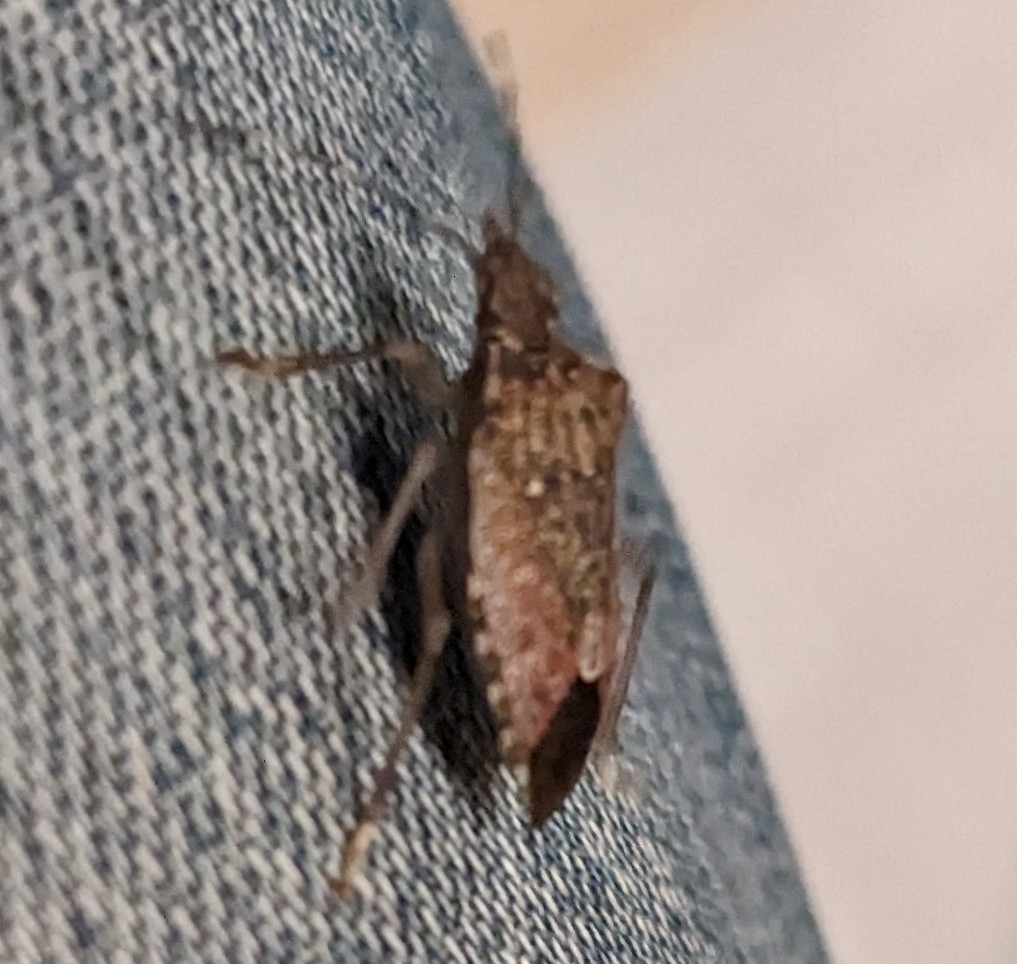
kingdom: Animalia
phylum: Arthropoda
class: Insecta
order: Hemiptera
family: Pentatomidae
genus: Halyomorpha
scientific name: Halyomorpha halys
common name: Brown marmorated stink bug
